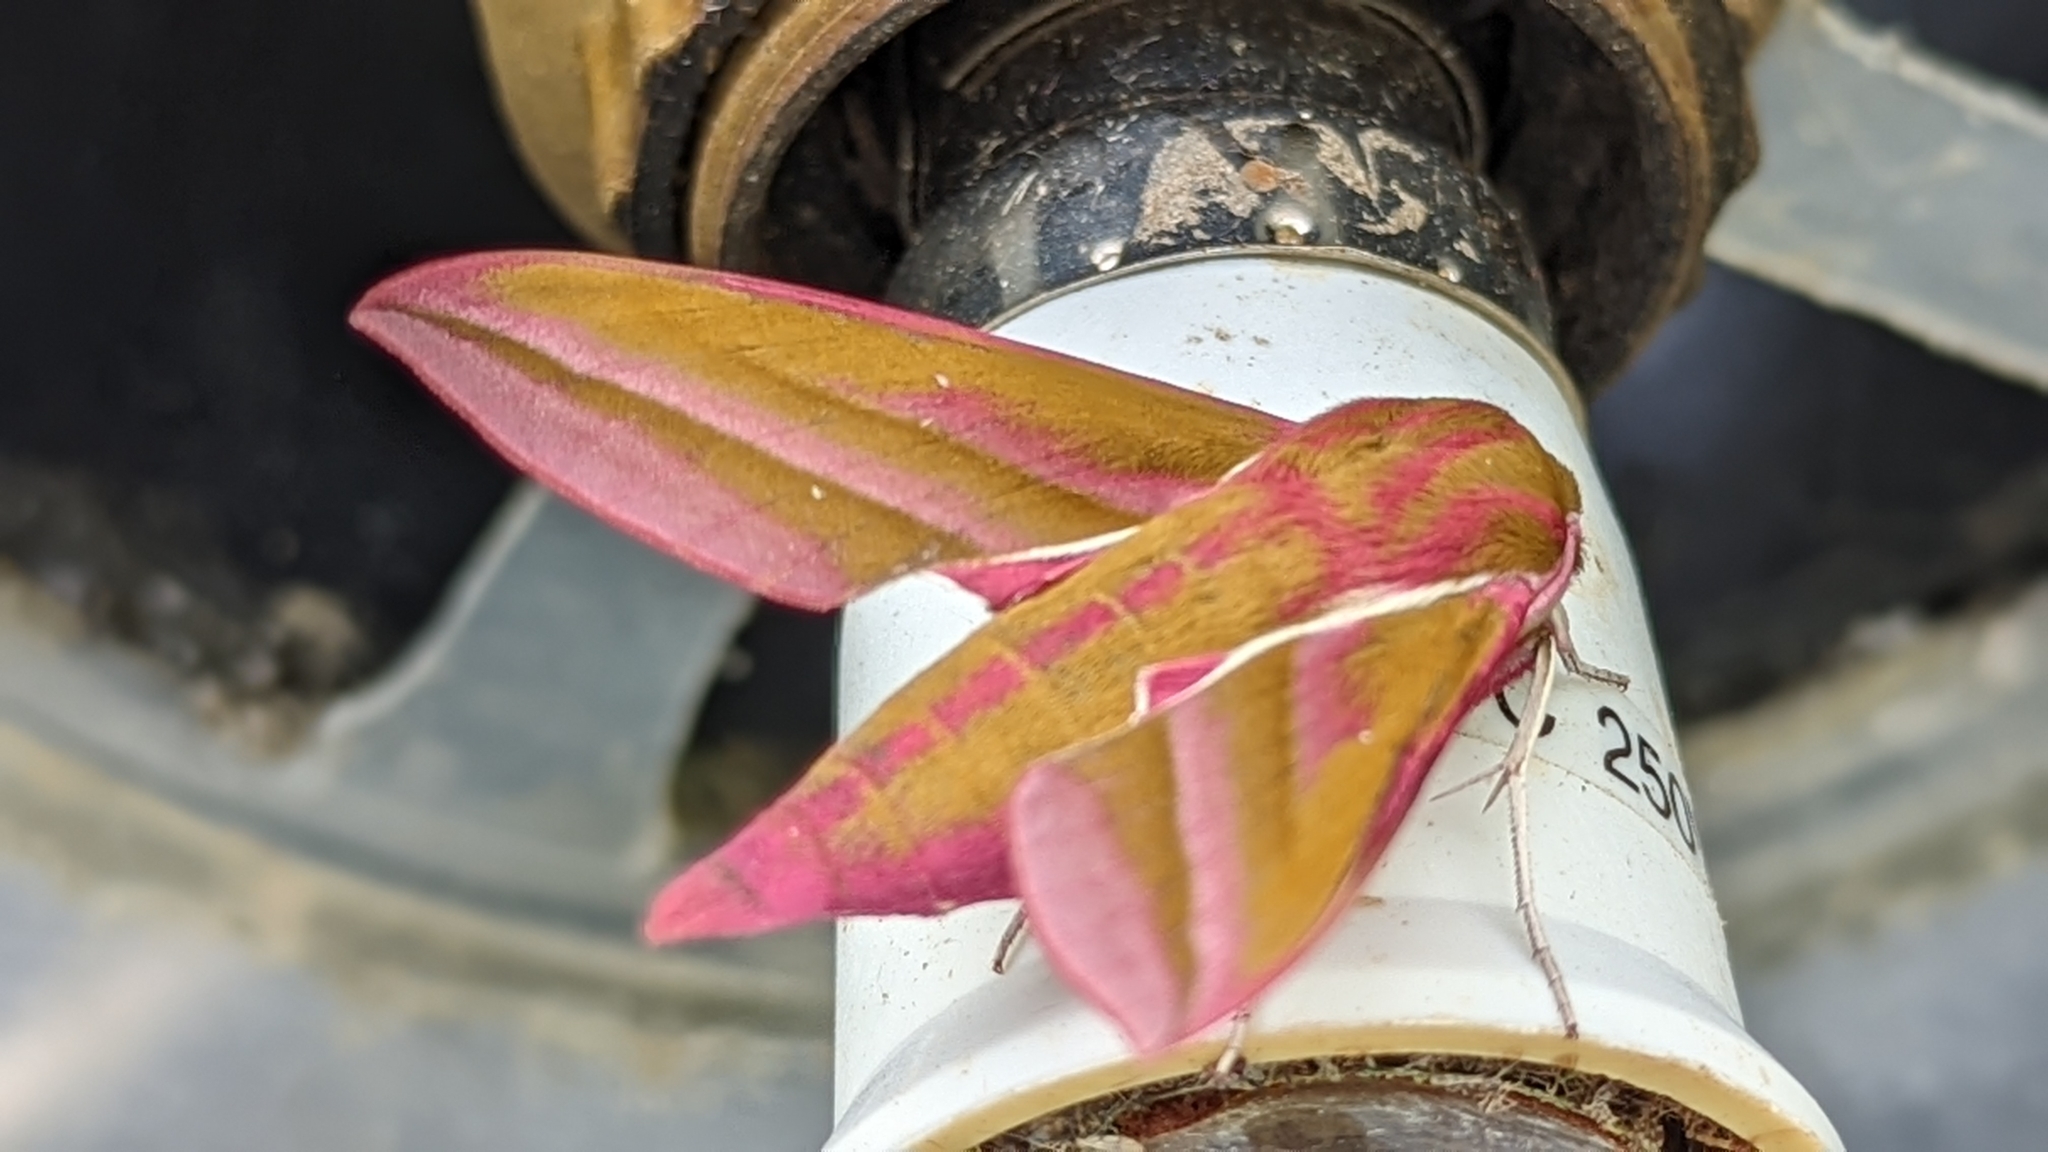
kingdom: Animalia
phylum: Arthropoda
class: Insecta
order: Lepidoptera
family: Sphingidae
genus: Deilephila
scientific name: Deilephila elpenor
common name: Elephant hawk-moth
